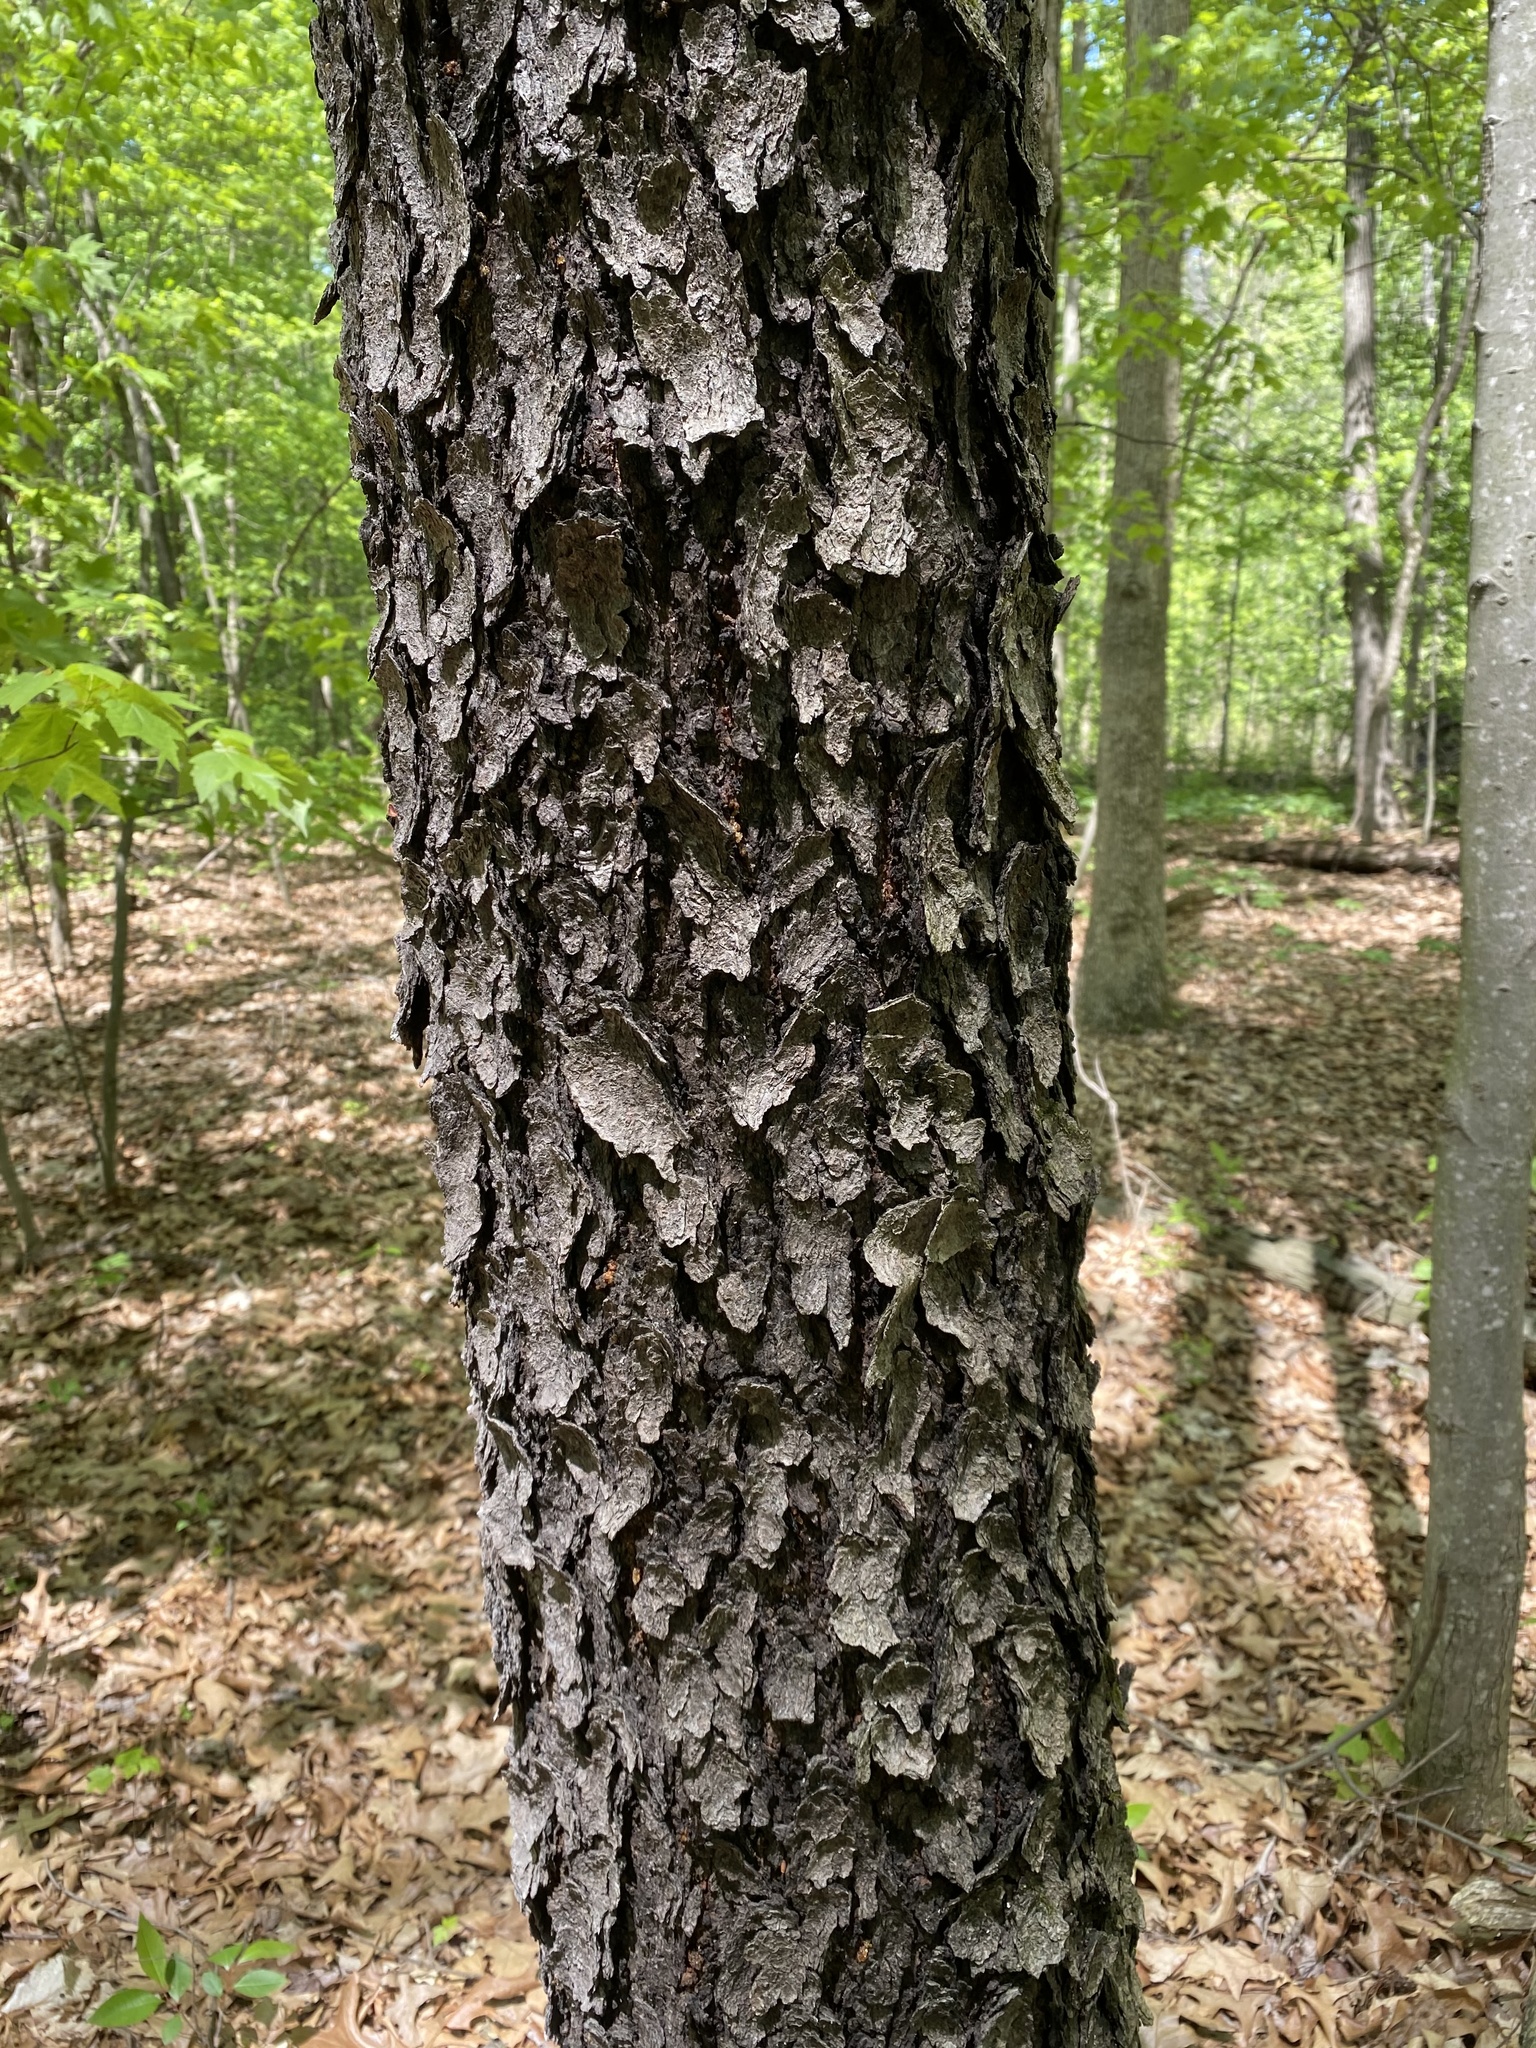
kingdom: Plantae
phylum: Tracheophyta
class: Magnoliopsida
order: Rosales
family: Rosaceae
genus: Prunus
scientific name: Prunus serotina
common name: Black cherry
